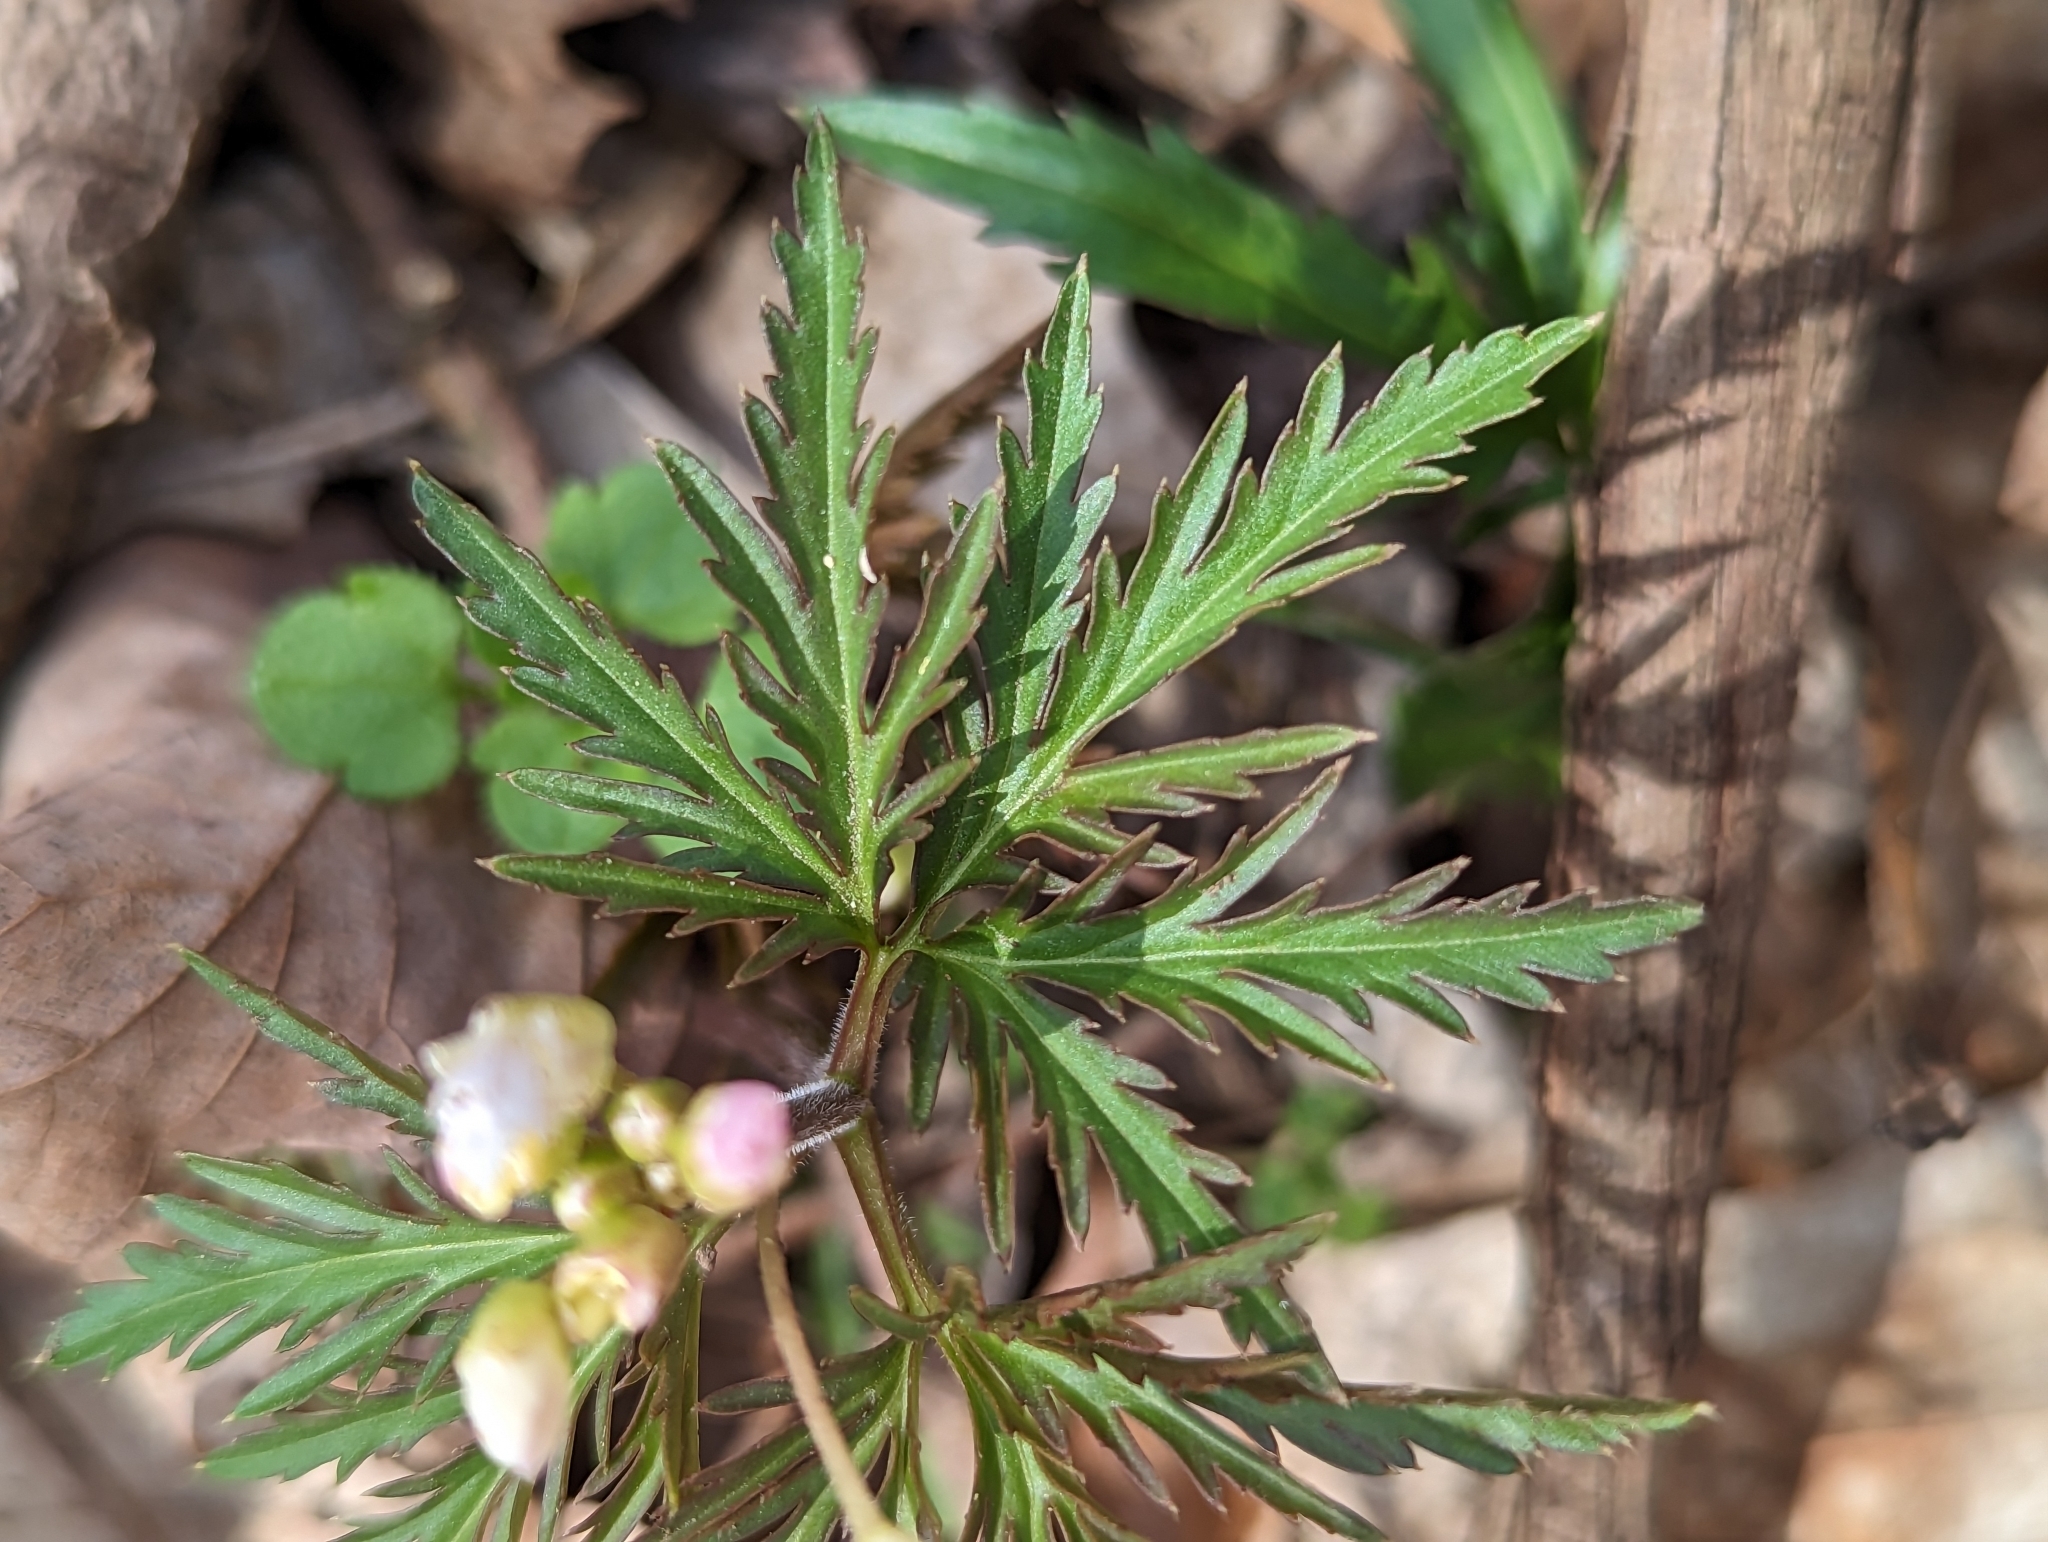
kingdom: Plantae
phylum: Tracheophyta
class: Magnoliopsida
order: Brassicales
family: Brassicaceae
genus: Cardamine
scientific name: Cardamine concatenata
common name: Cut-leaf toothcup
